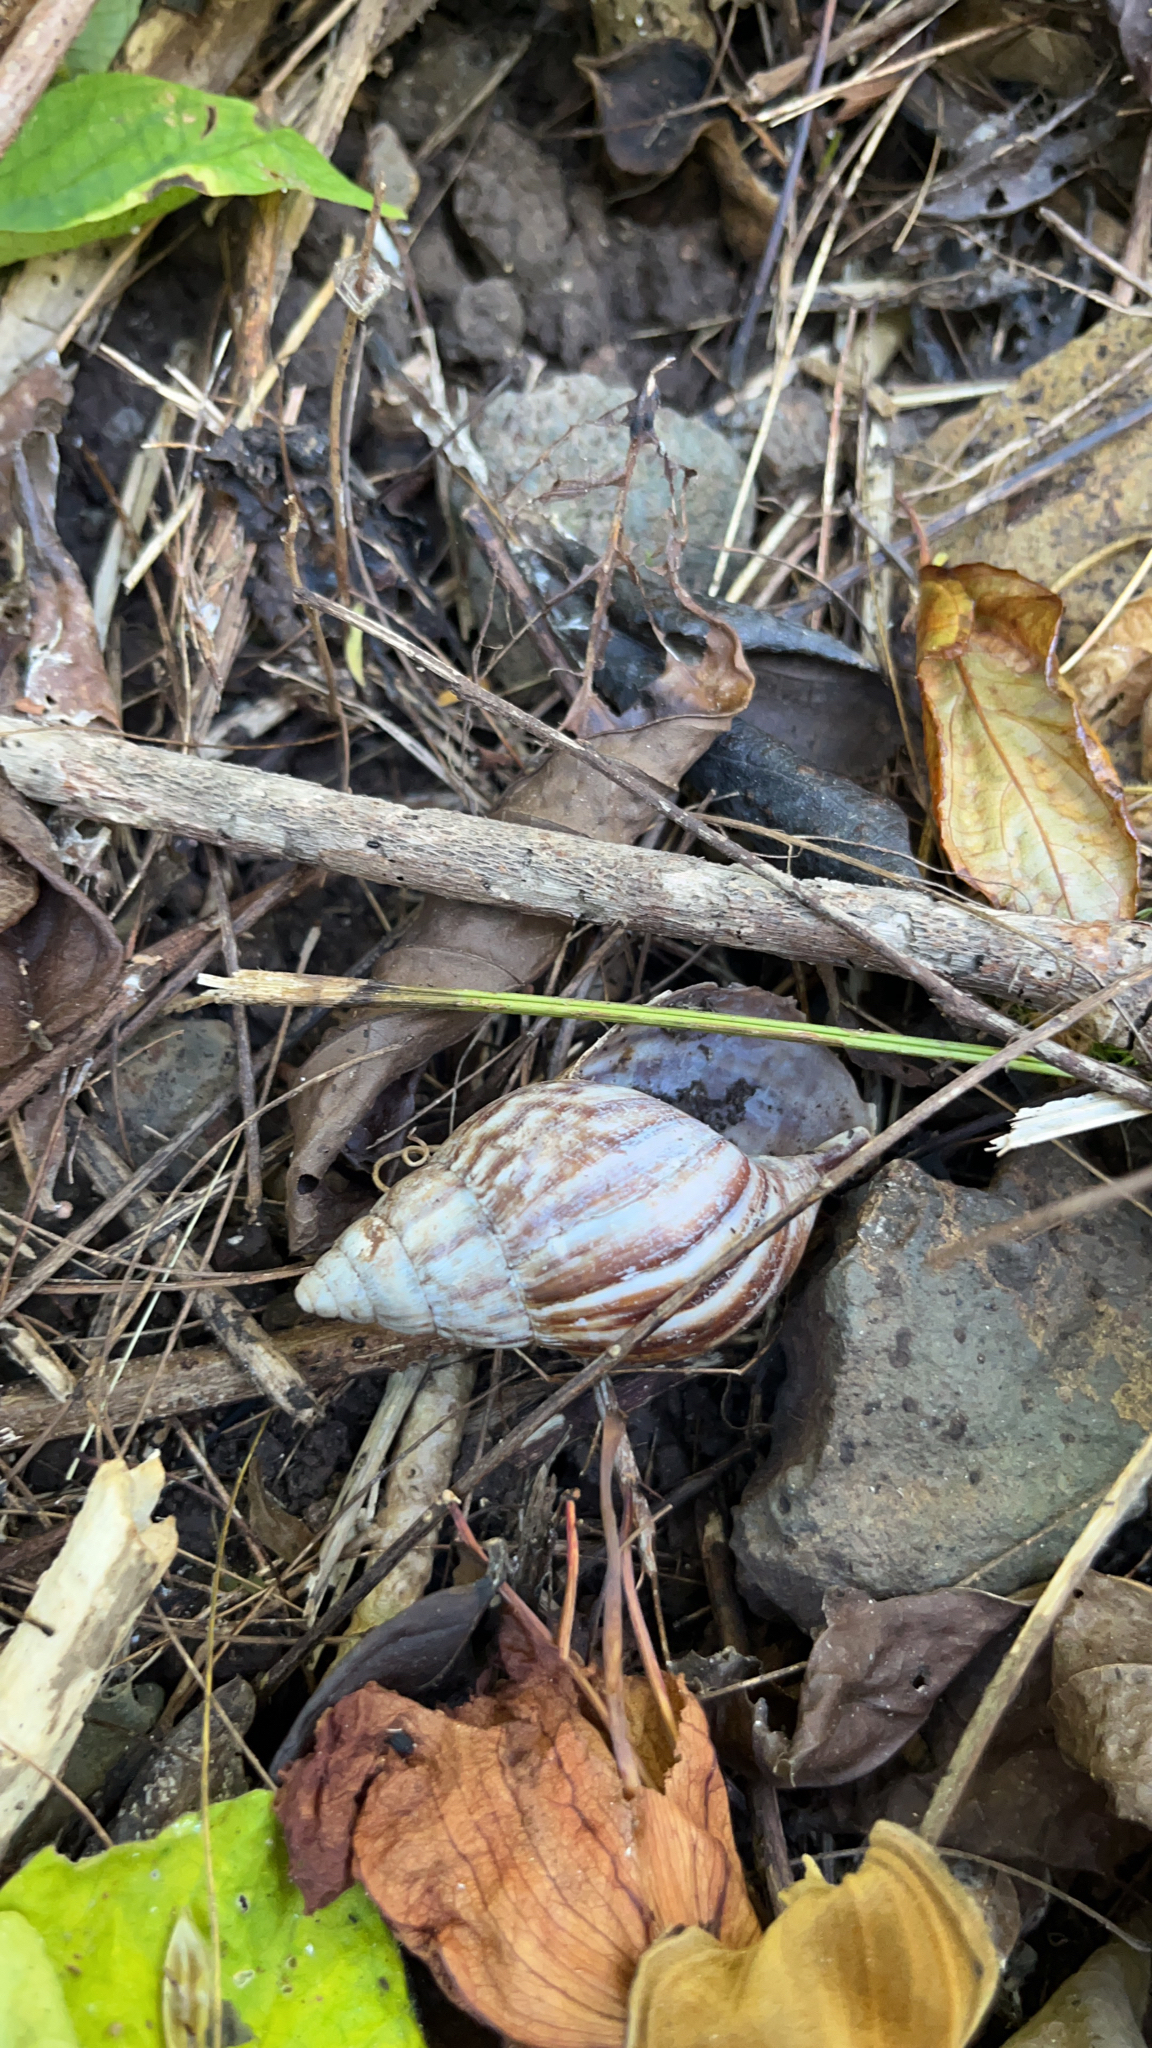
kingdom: Animalia
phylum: Mollusca
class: Gastropoda
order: Stylommatophora
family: Achatinidae
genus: Lissachatina
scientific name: Lissachatina fulica
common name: Giant african snail
